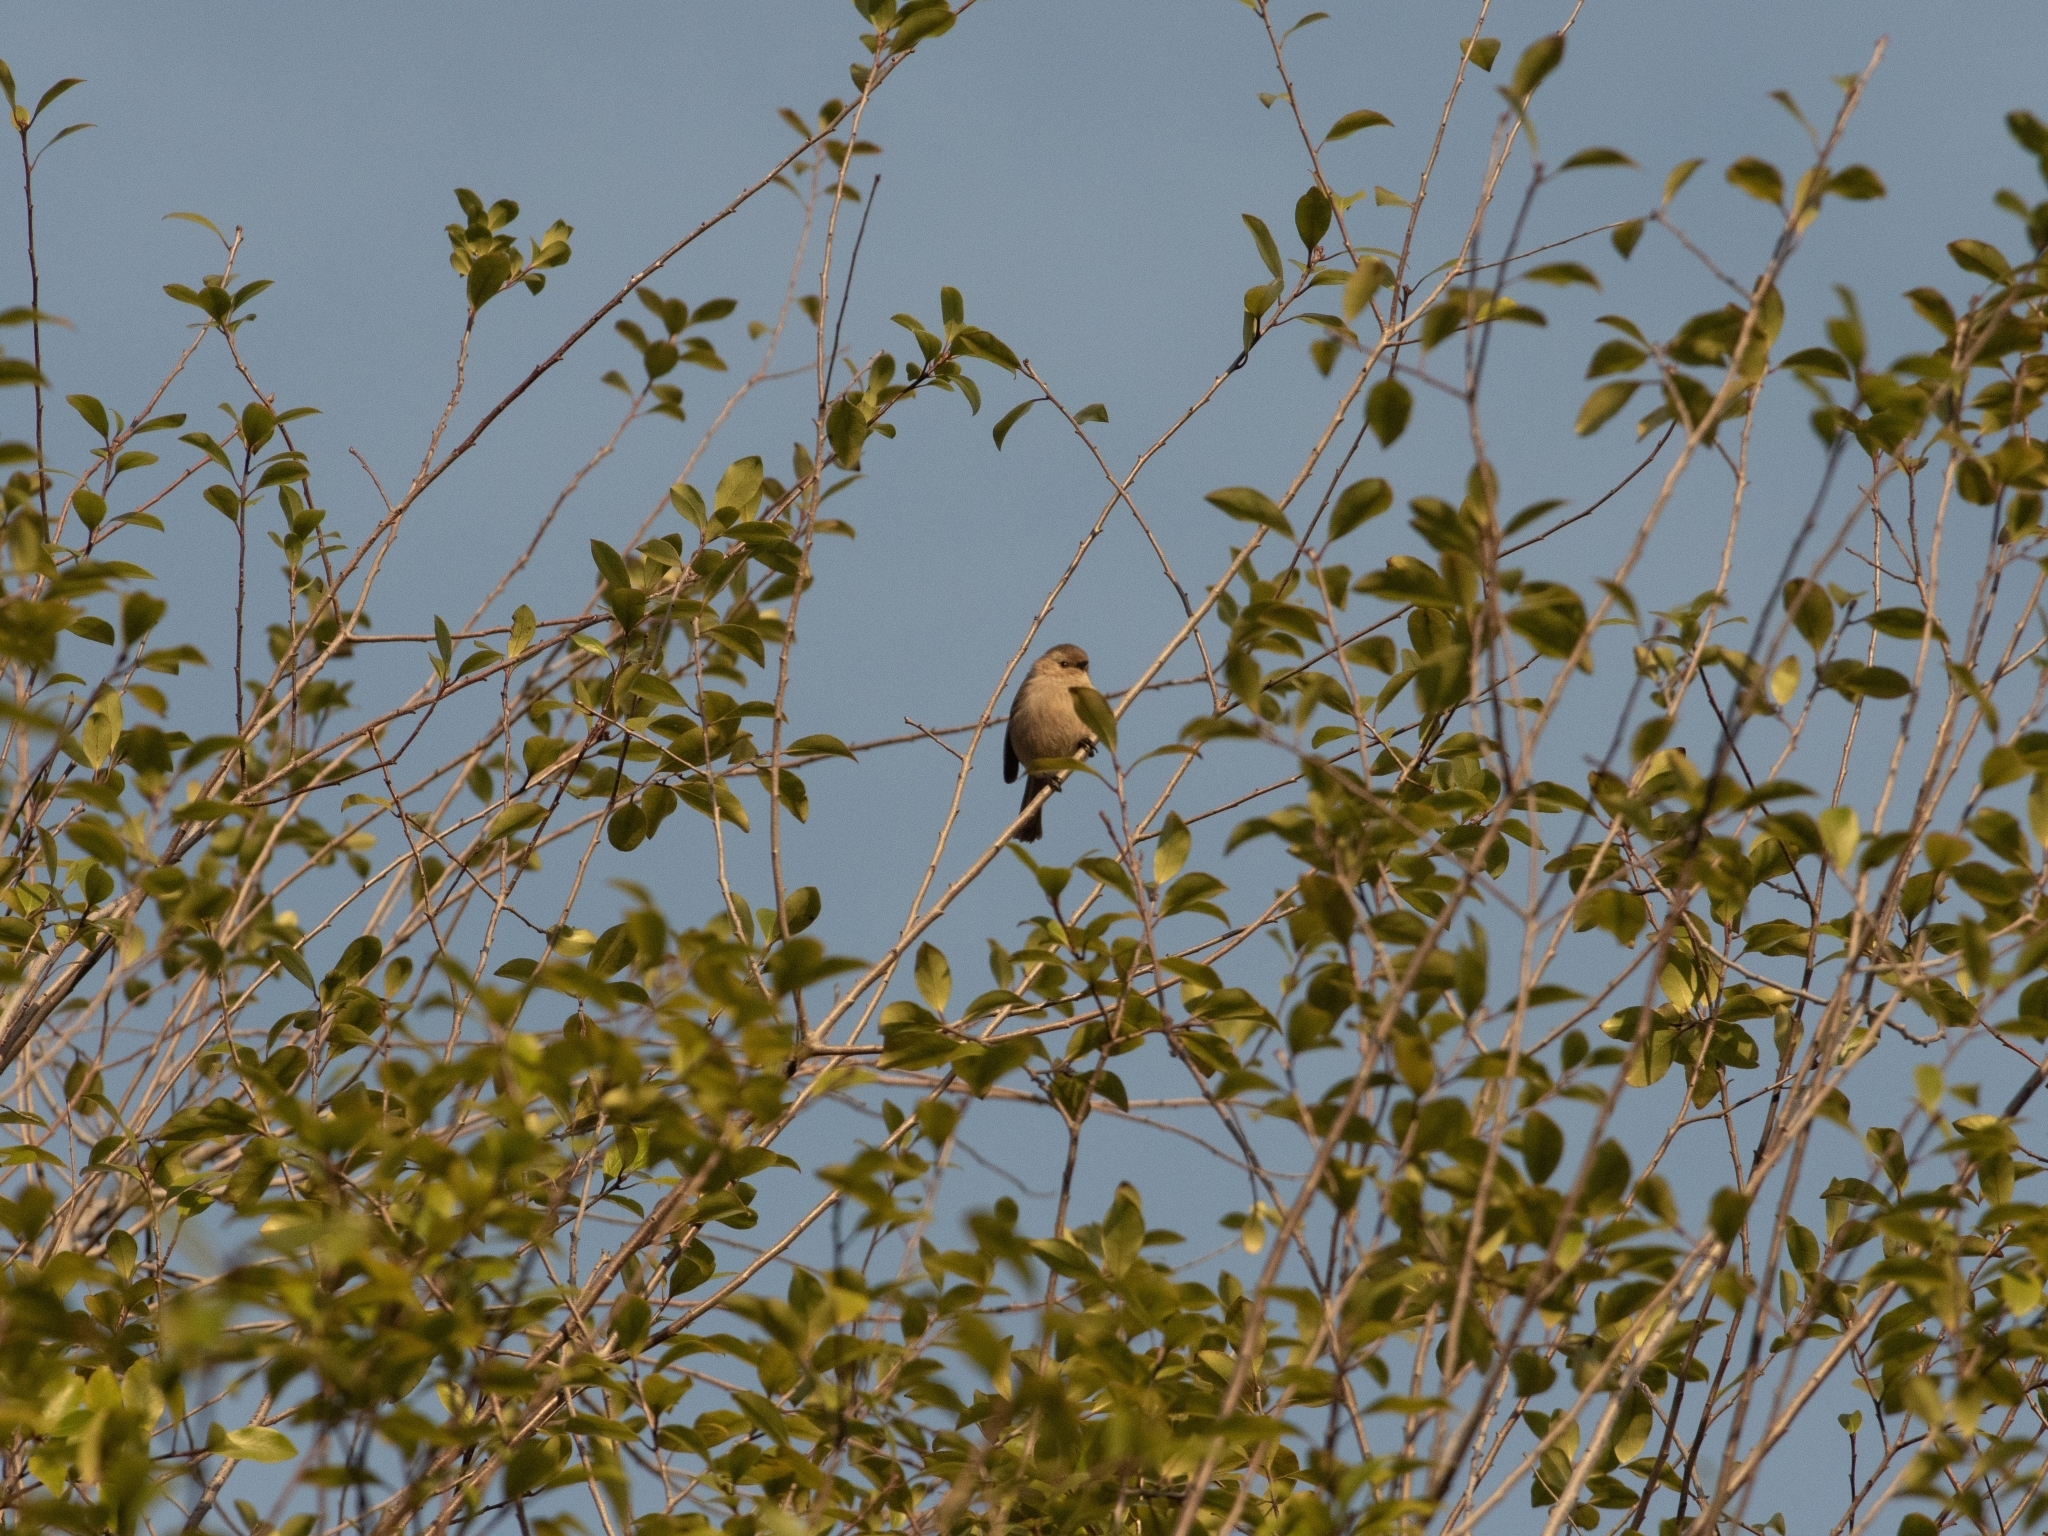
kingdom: Animalia
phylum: Chordata
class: Aves
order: Passeriformes
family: Aegithalidae
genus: Psaltriparus
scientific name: Psaltriparus minimus
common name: American bushtit
